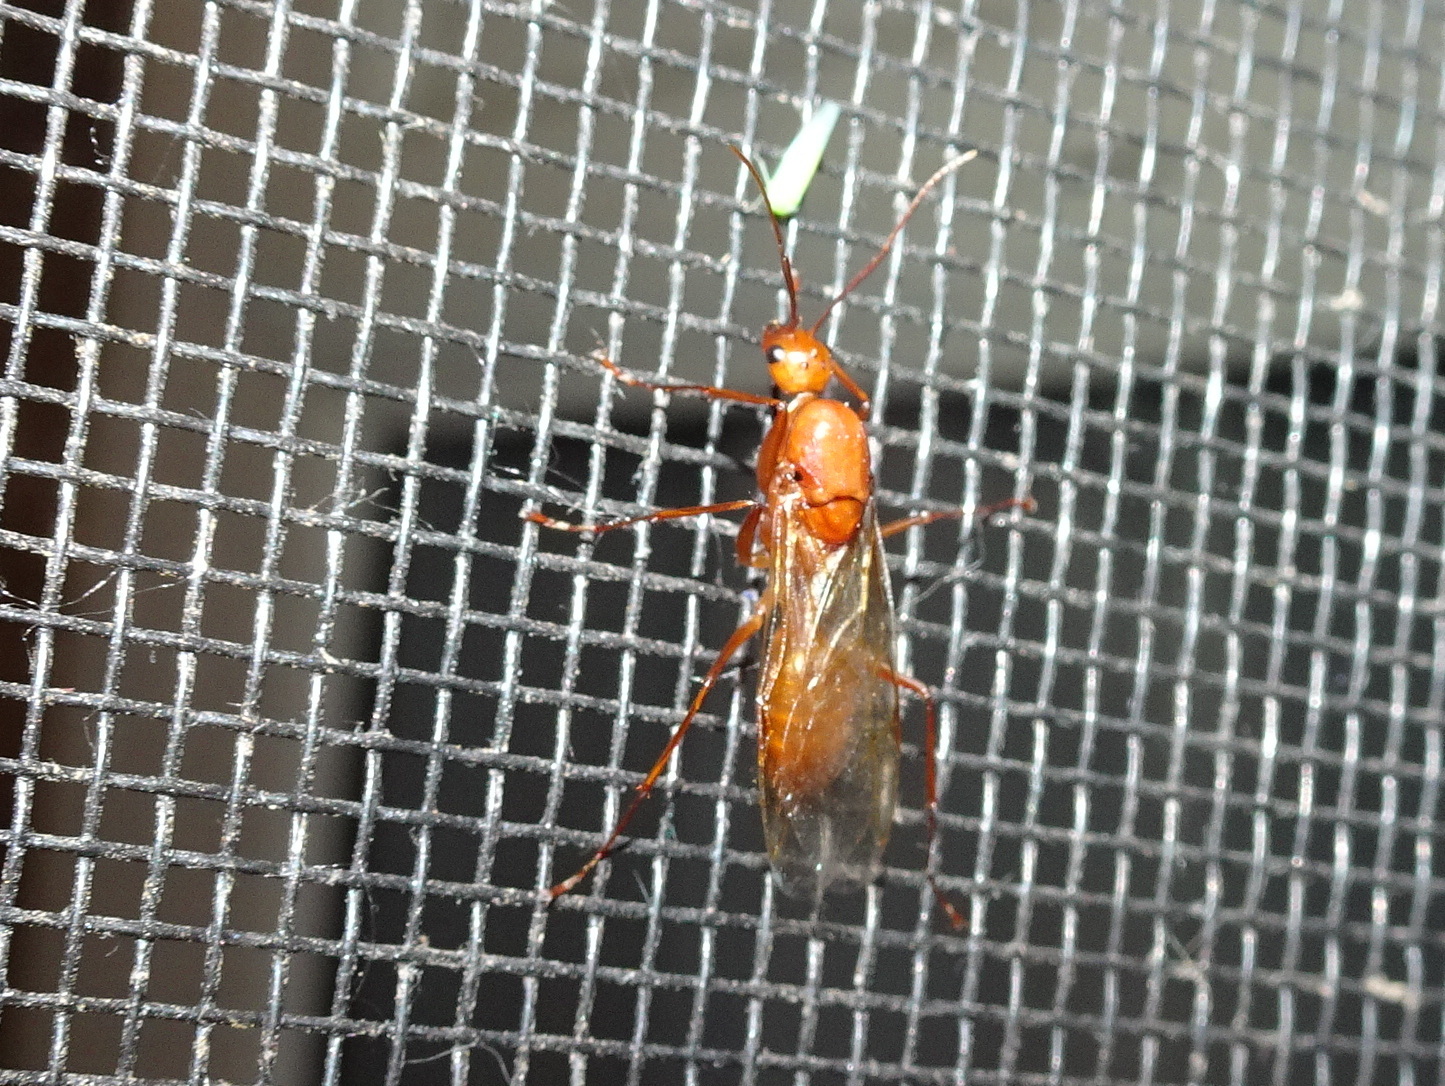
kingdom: Animalia
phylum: Arthropoda
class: Insecta
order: Hymenoptera
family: Formicidae
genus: Camponotus
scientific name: Camponotus castaneus
